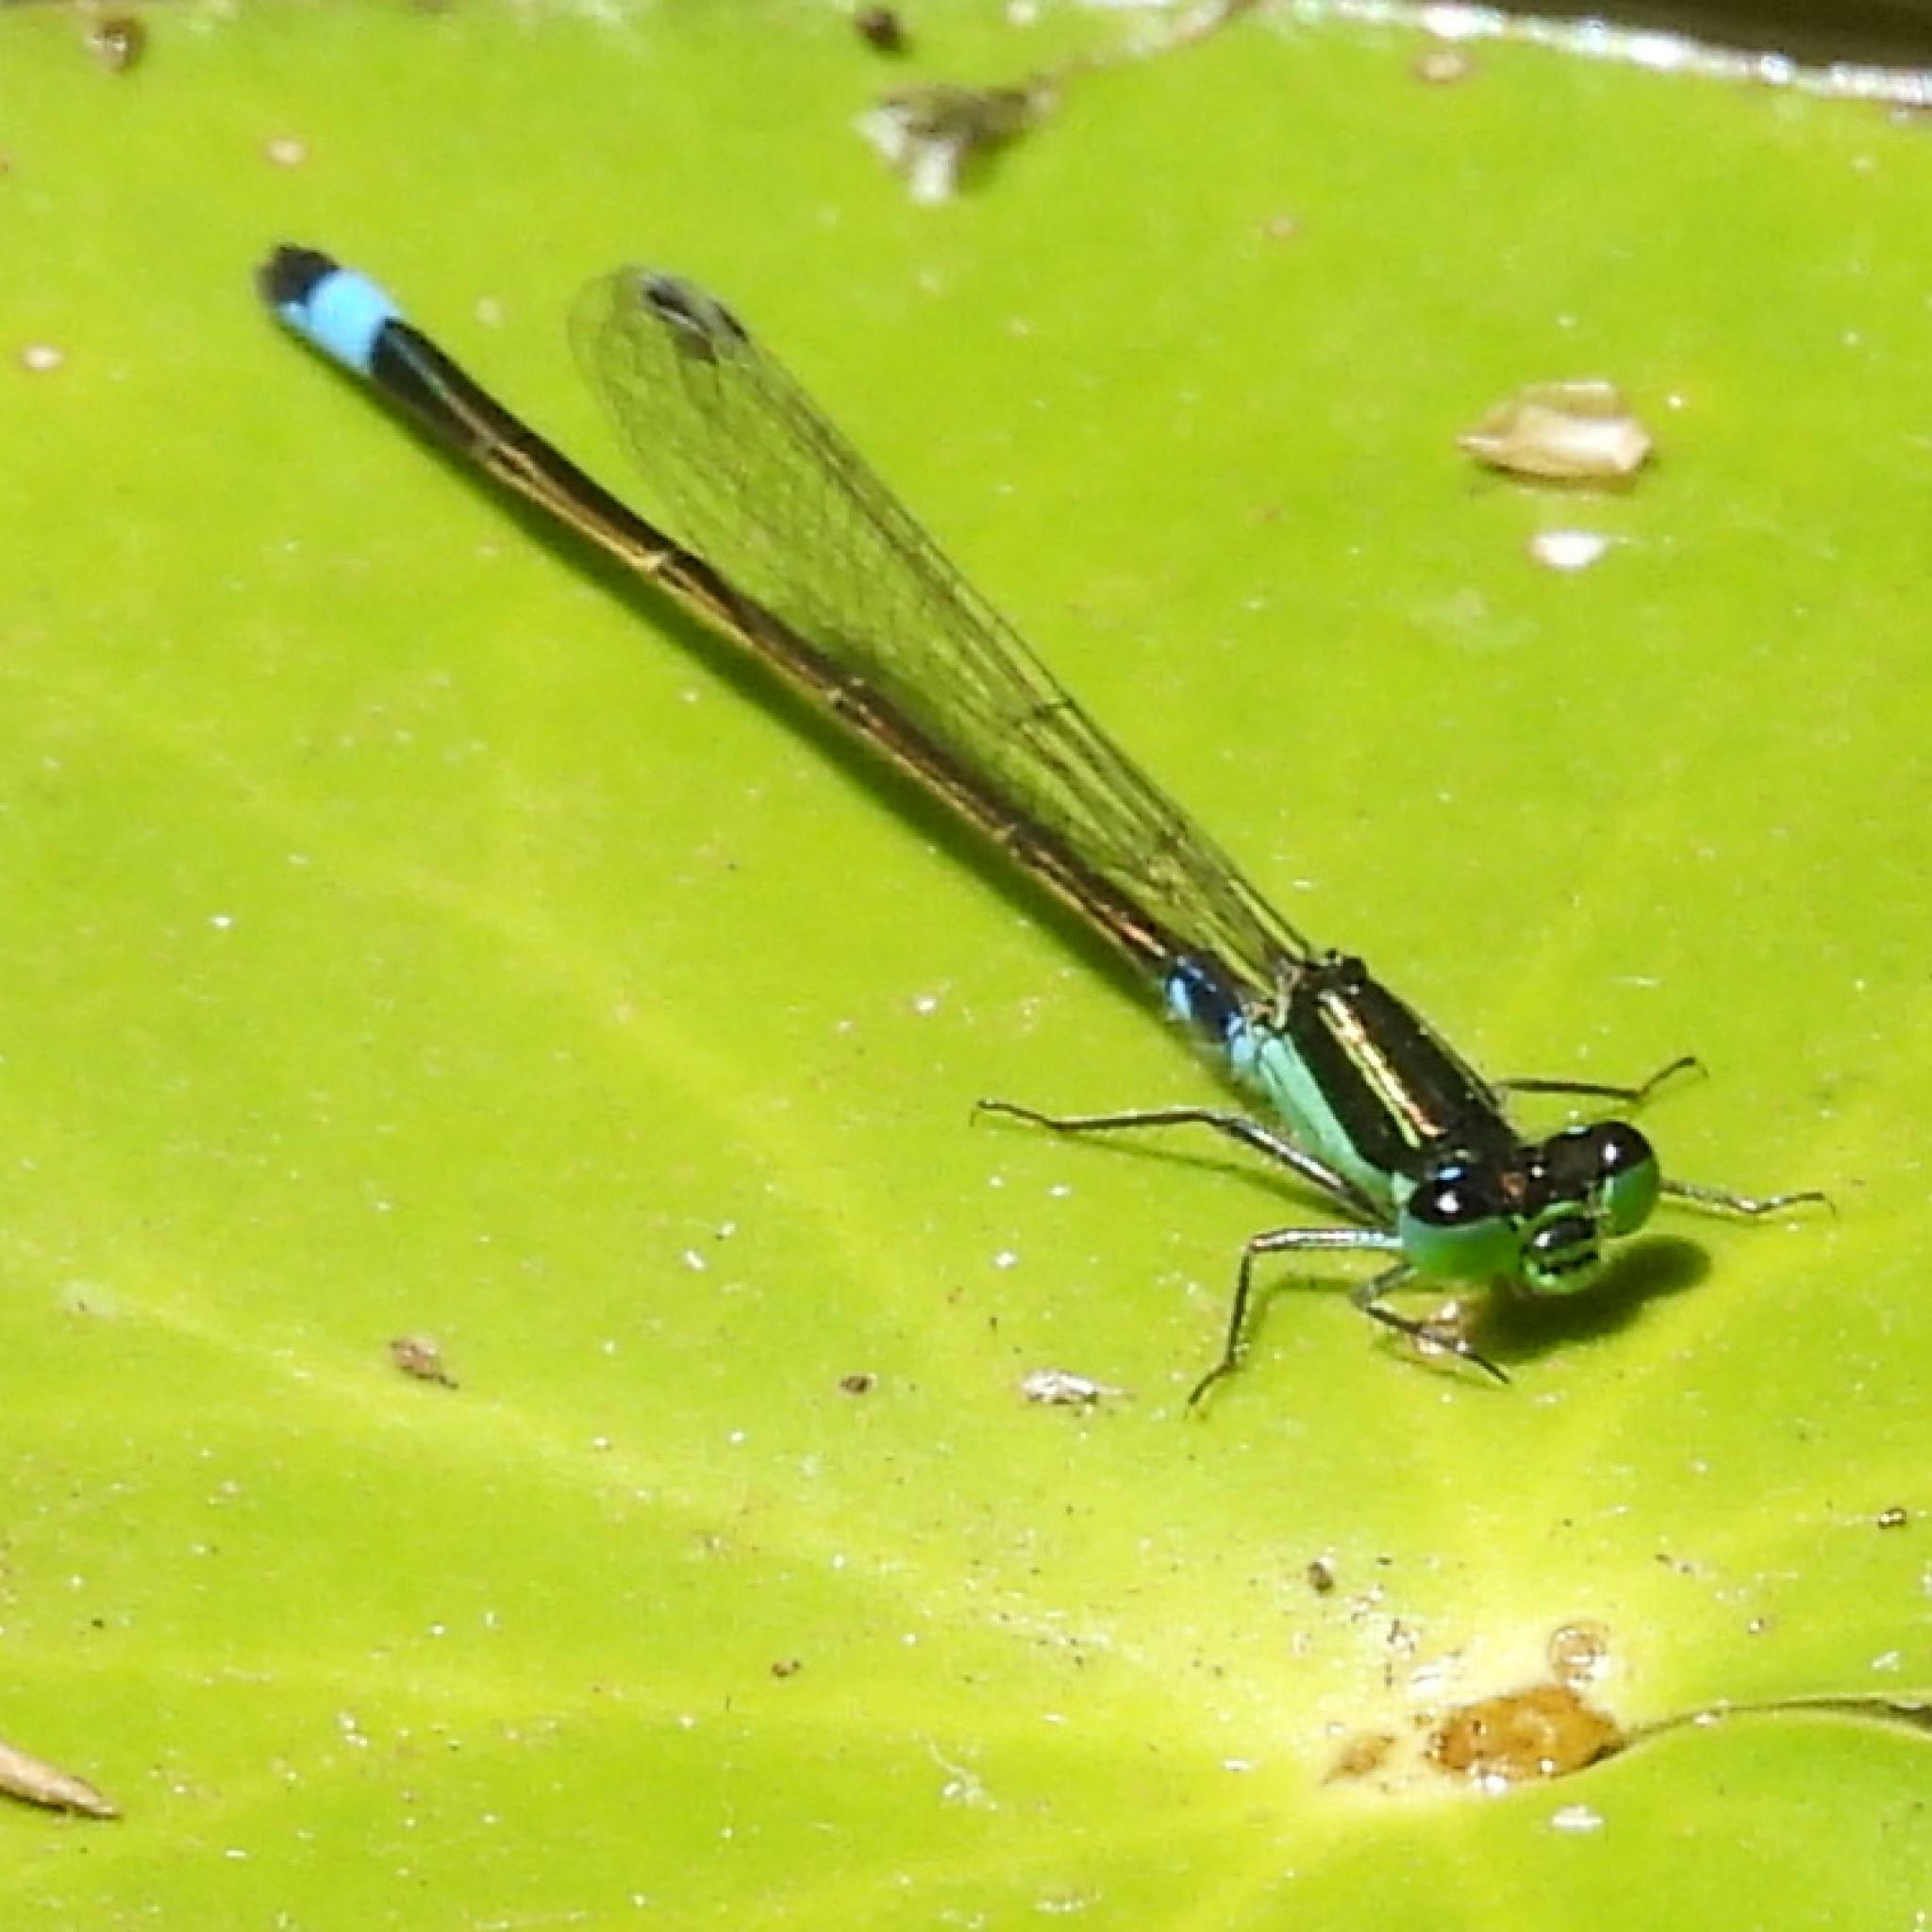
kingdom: Animalia
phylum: Arthropoda
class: Insecta
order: Odonata
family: Coenagrionidae
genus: Ischnura
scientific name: Ischnura senegalensis
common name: Tropical bluetail
